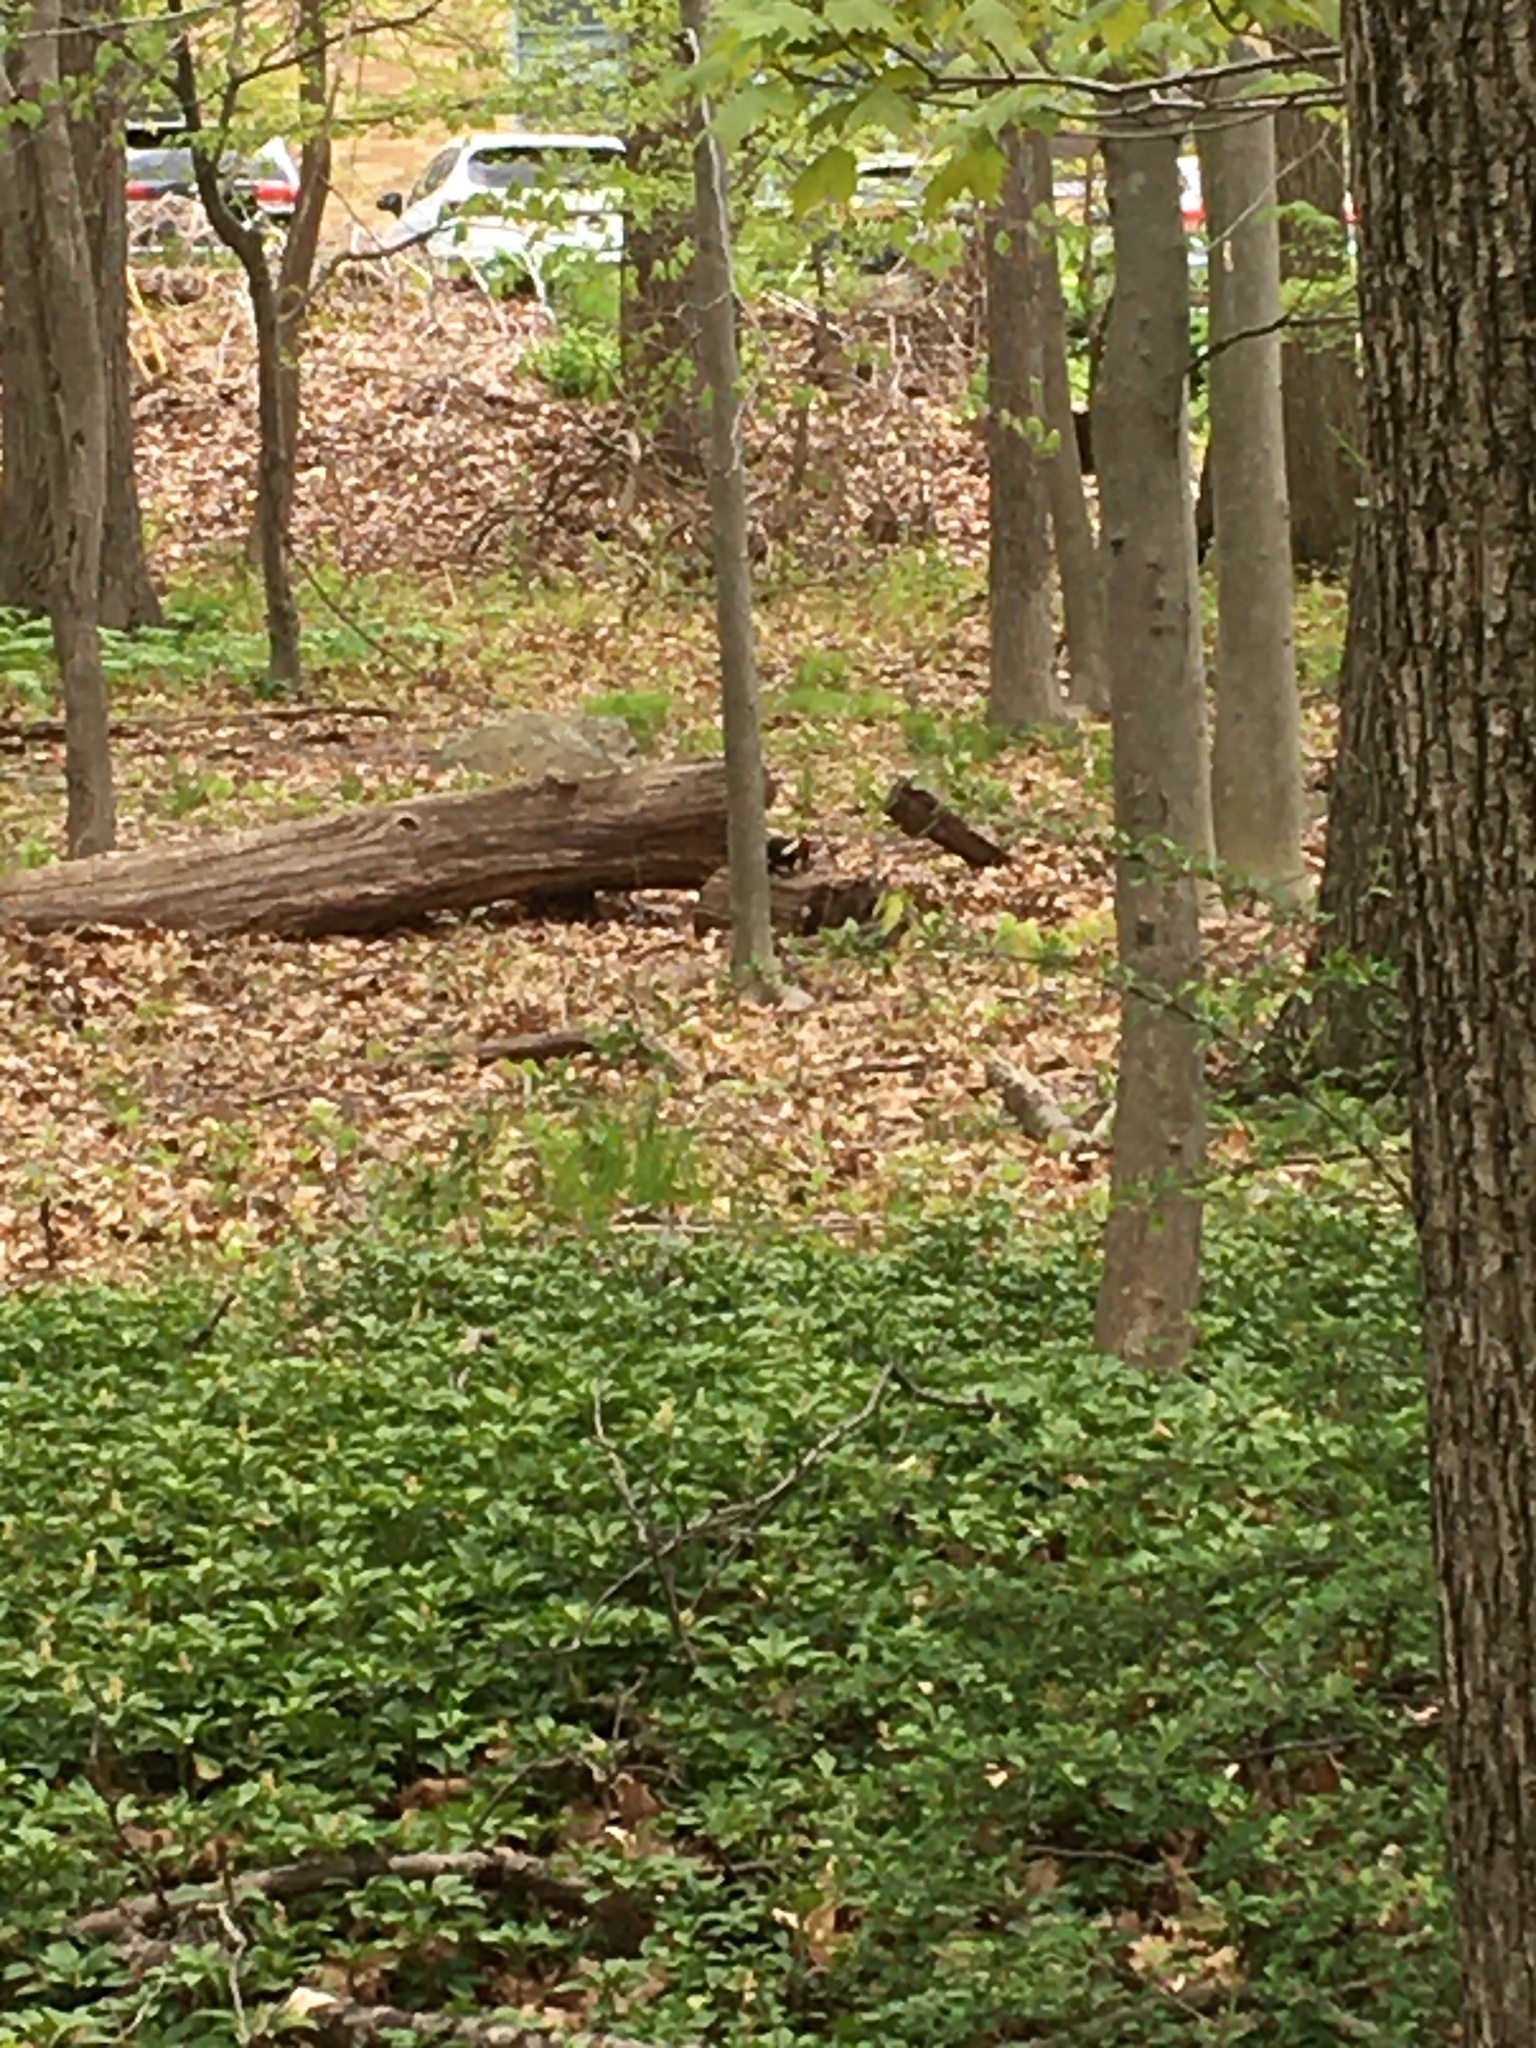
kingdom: Animalia
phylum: Chordata
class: Aves
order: Piciformes
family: Picidae
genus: Dryocopus
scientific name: Dryocopus pileatus
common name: Pileated woodpecker
